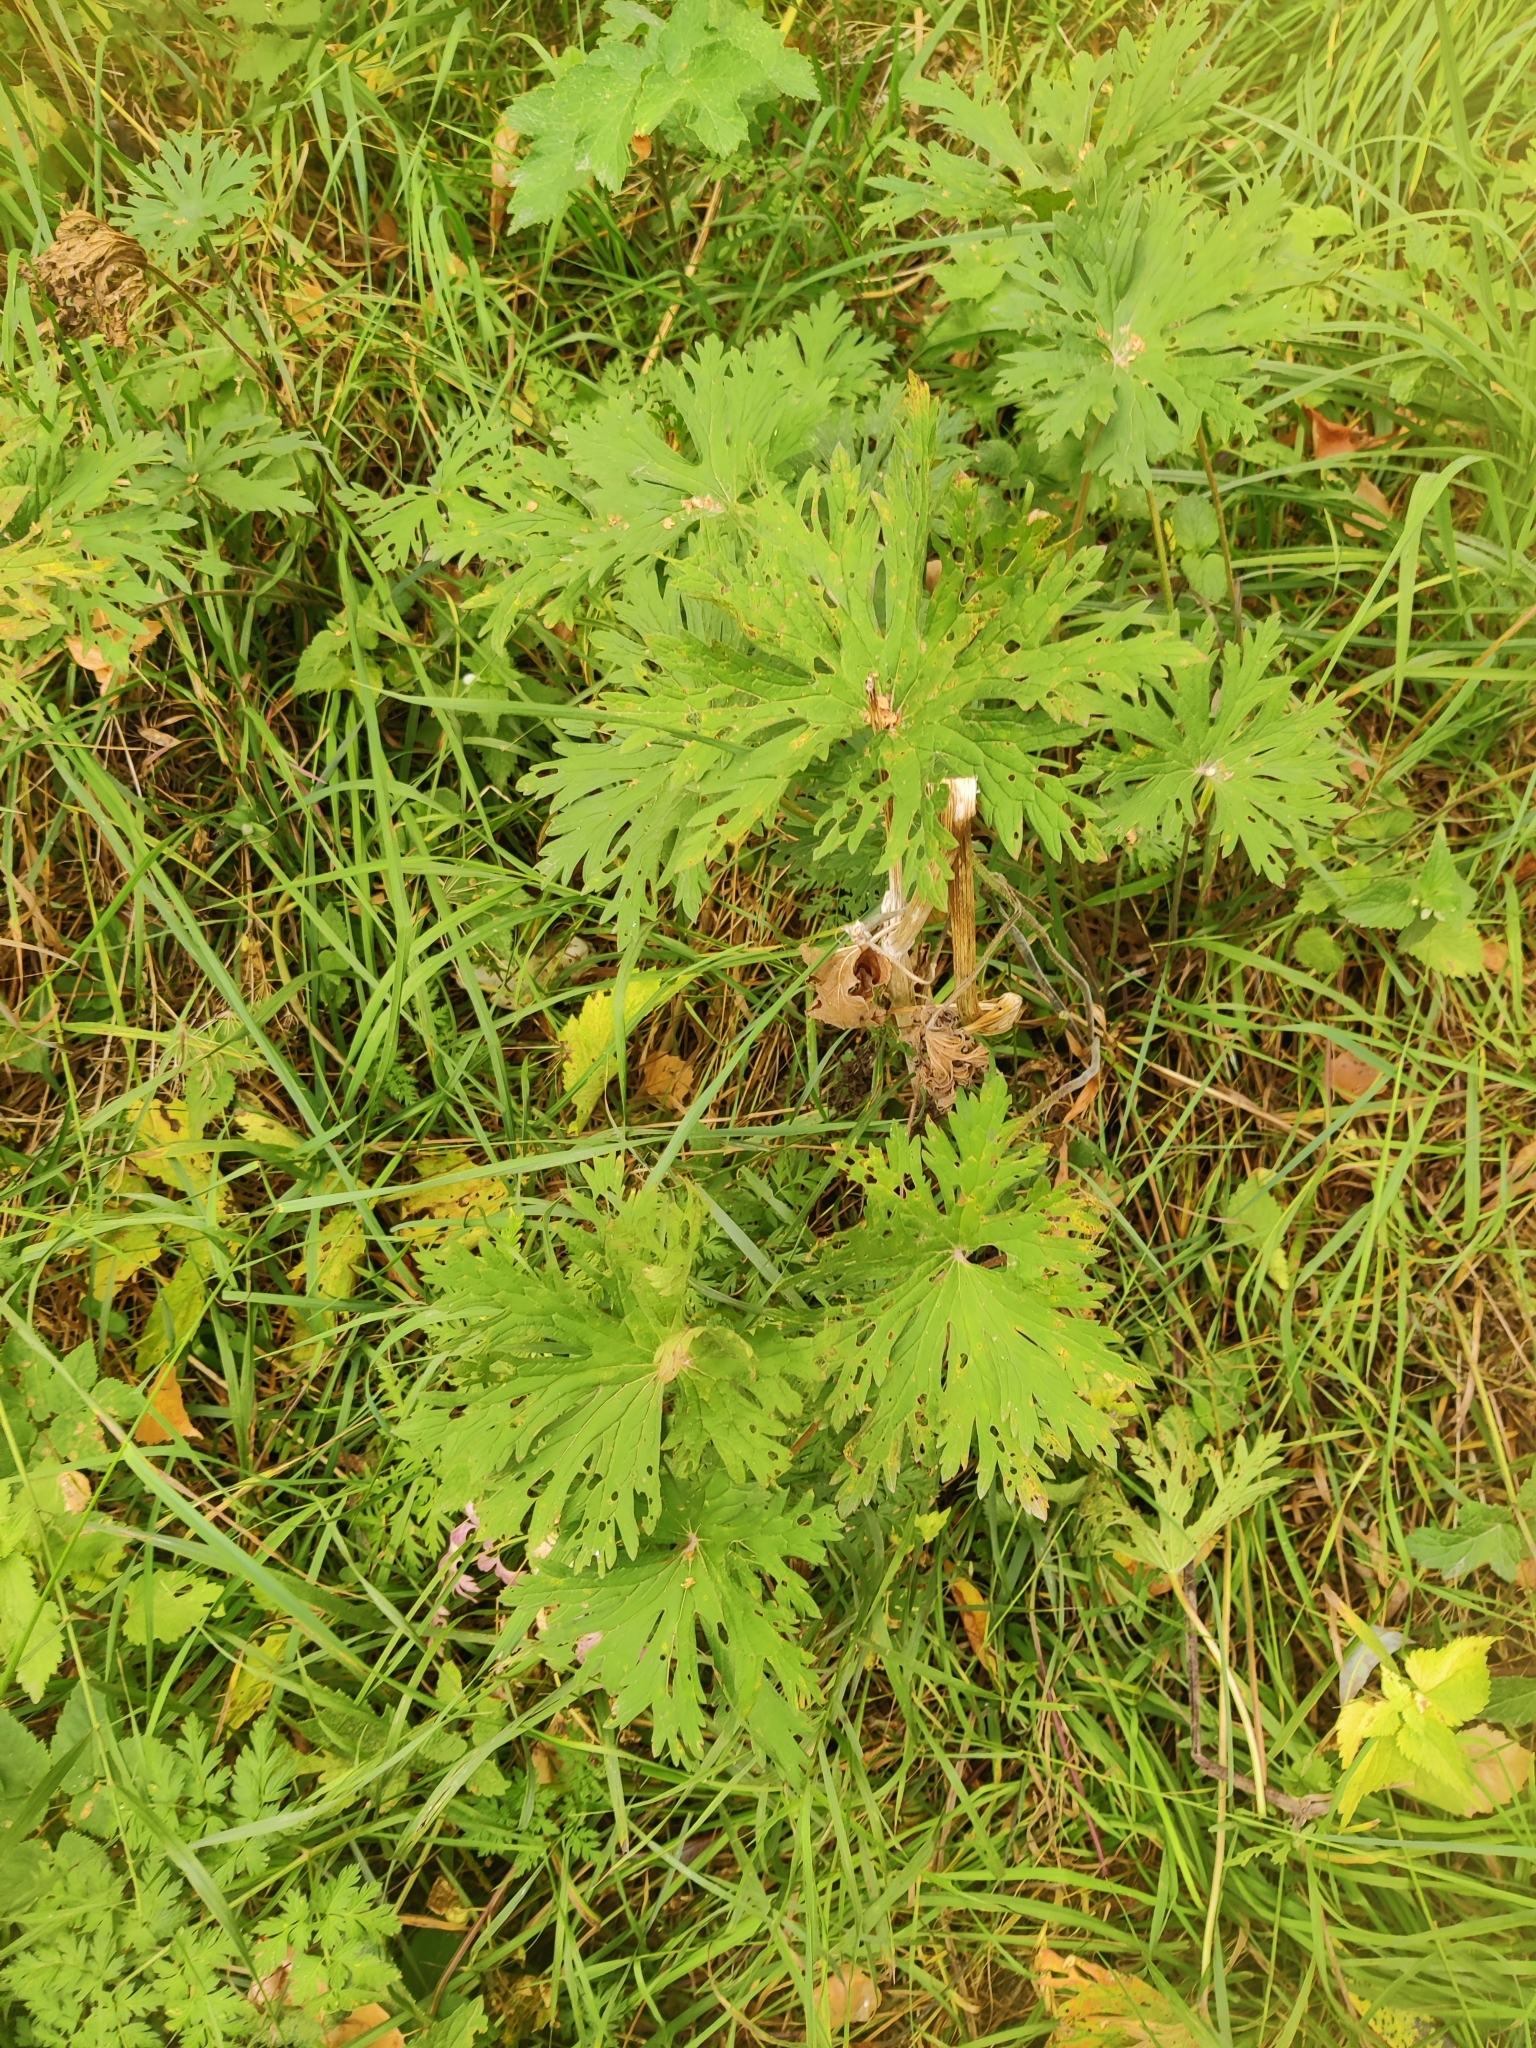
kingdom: Plantae
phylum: Tracheophyta
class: Magnoliopsida
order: Geraniales
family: Geraniaceae
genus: Geranium
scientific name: Geranium pratense
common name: Meadow crane's-bill
